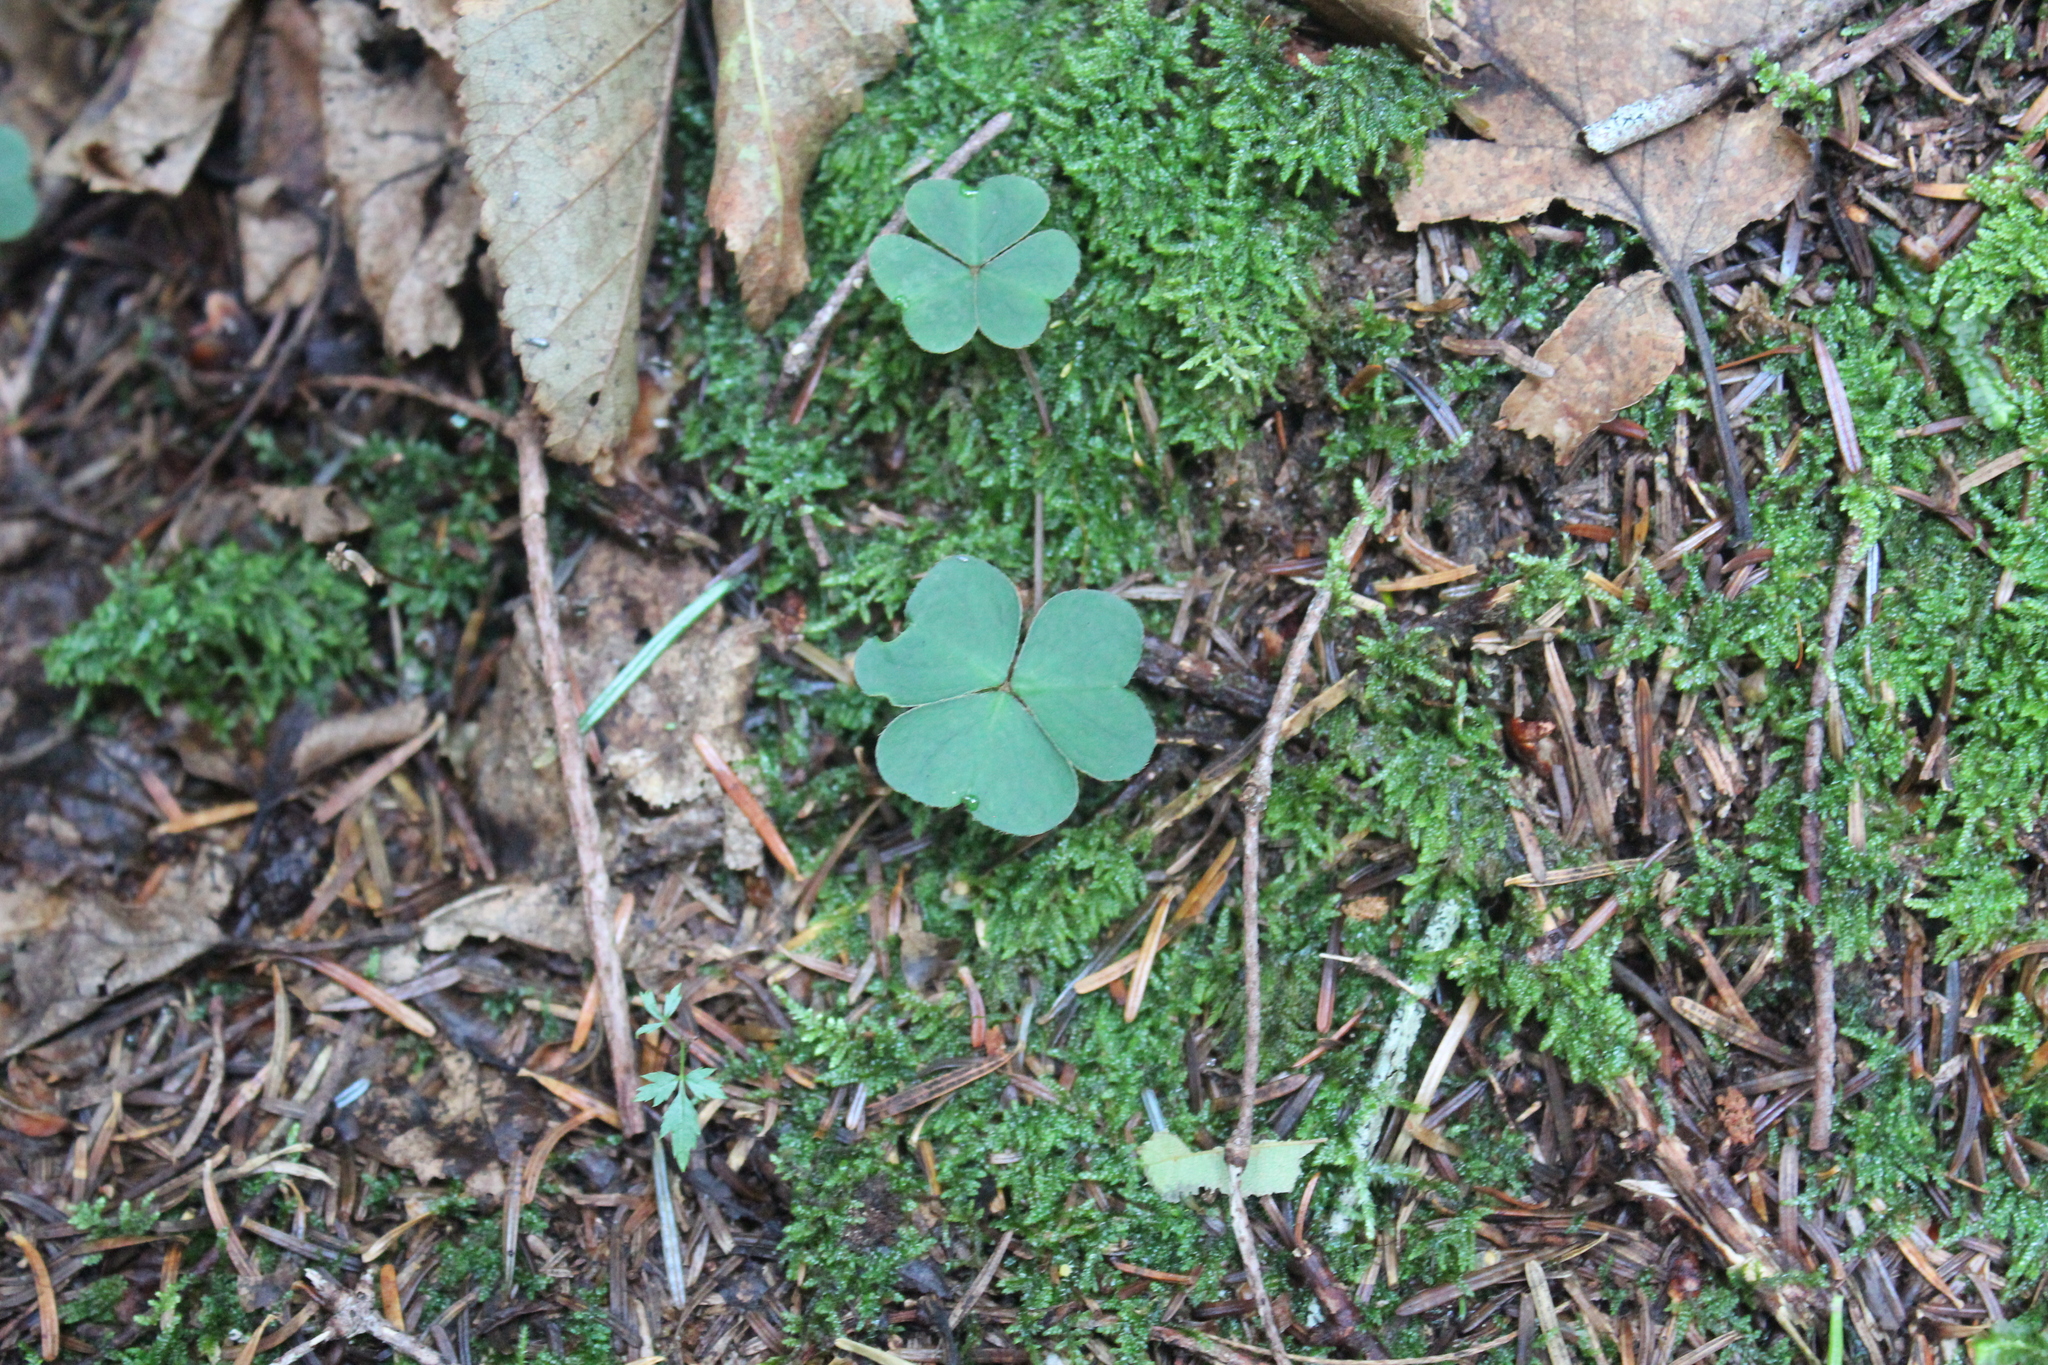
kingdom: Plantae
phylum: Tracheophyta
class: Magnoliopsida
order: Oxalidales
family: Oxalidaceae
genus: Oxalis
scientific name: Oxalis montana
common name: American wood-sorrel
